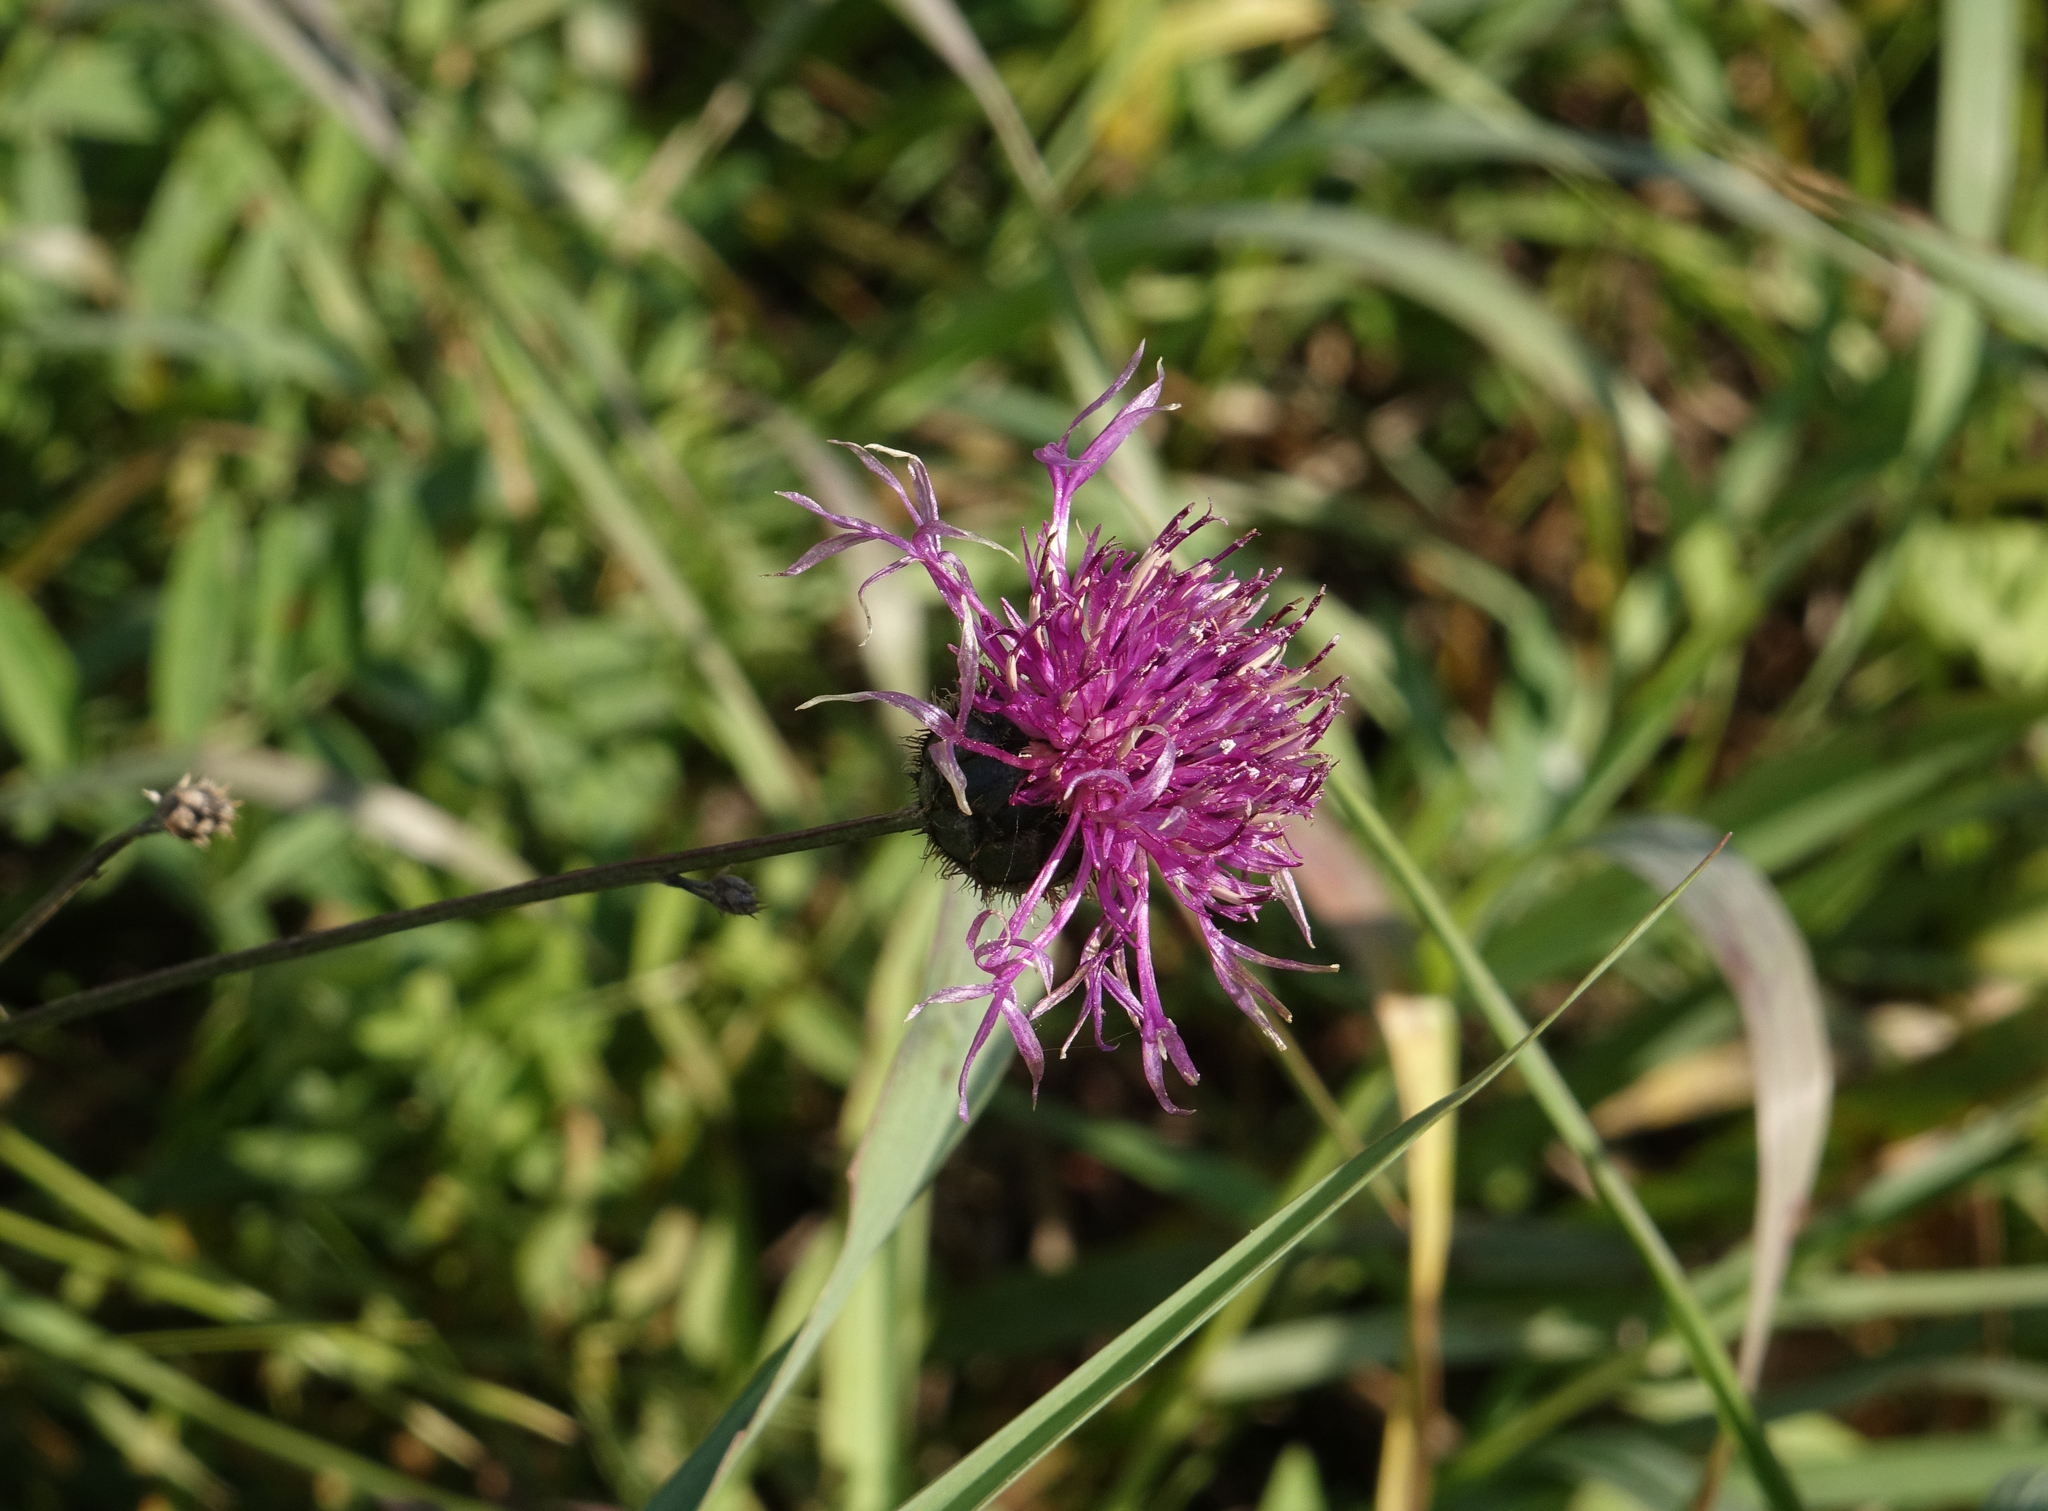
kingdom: Plantae
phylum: Tracheophyta
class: Magnoliopsida
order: Asterales
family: Asteraceae
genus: Centaurea
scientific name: Centaurea scabiosa
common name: Greater knapweed
